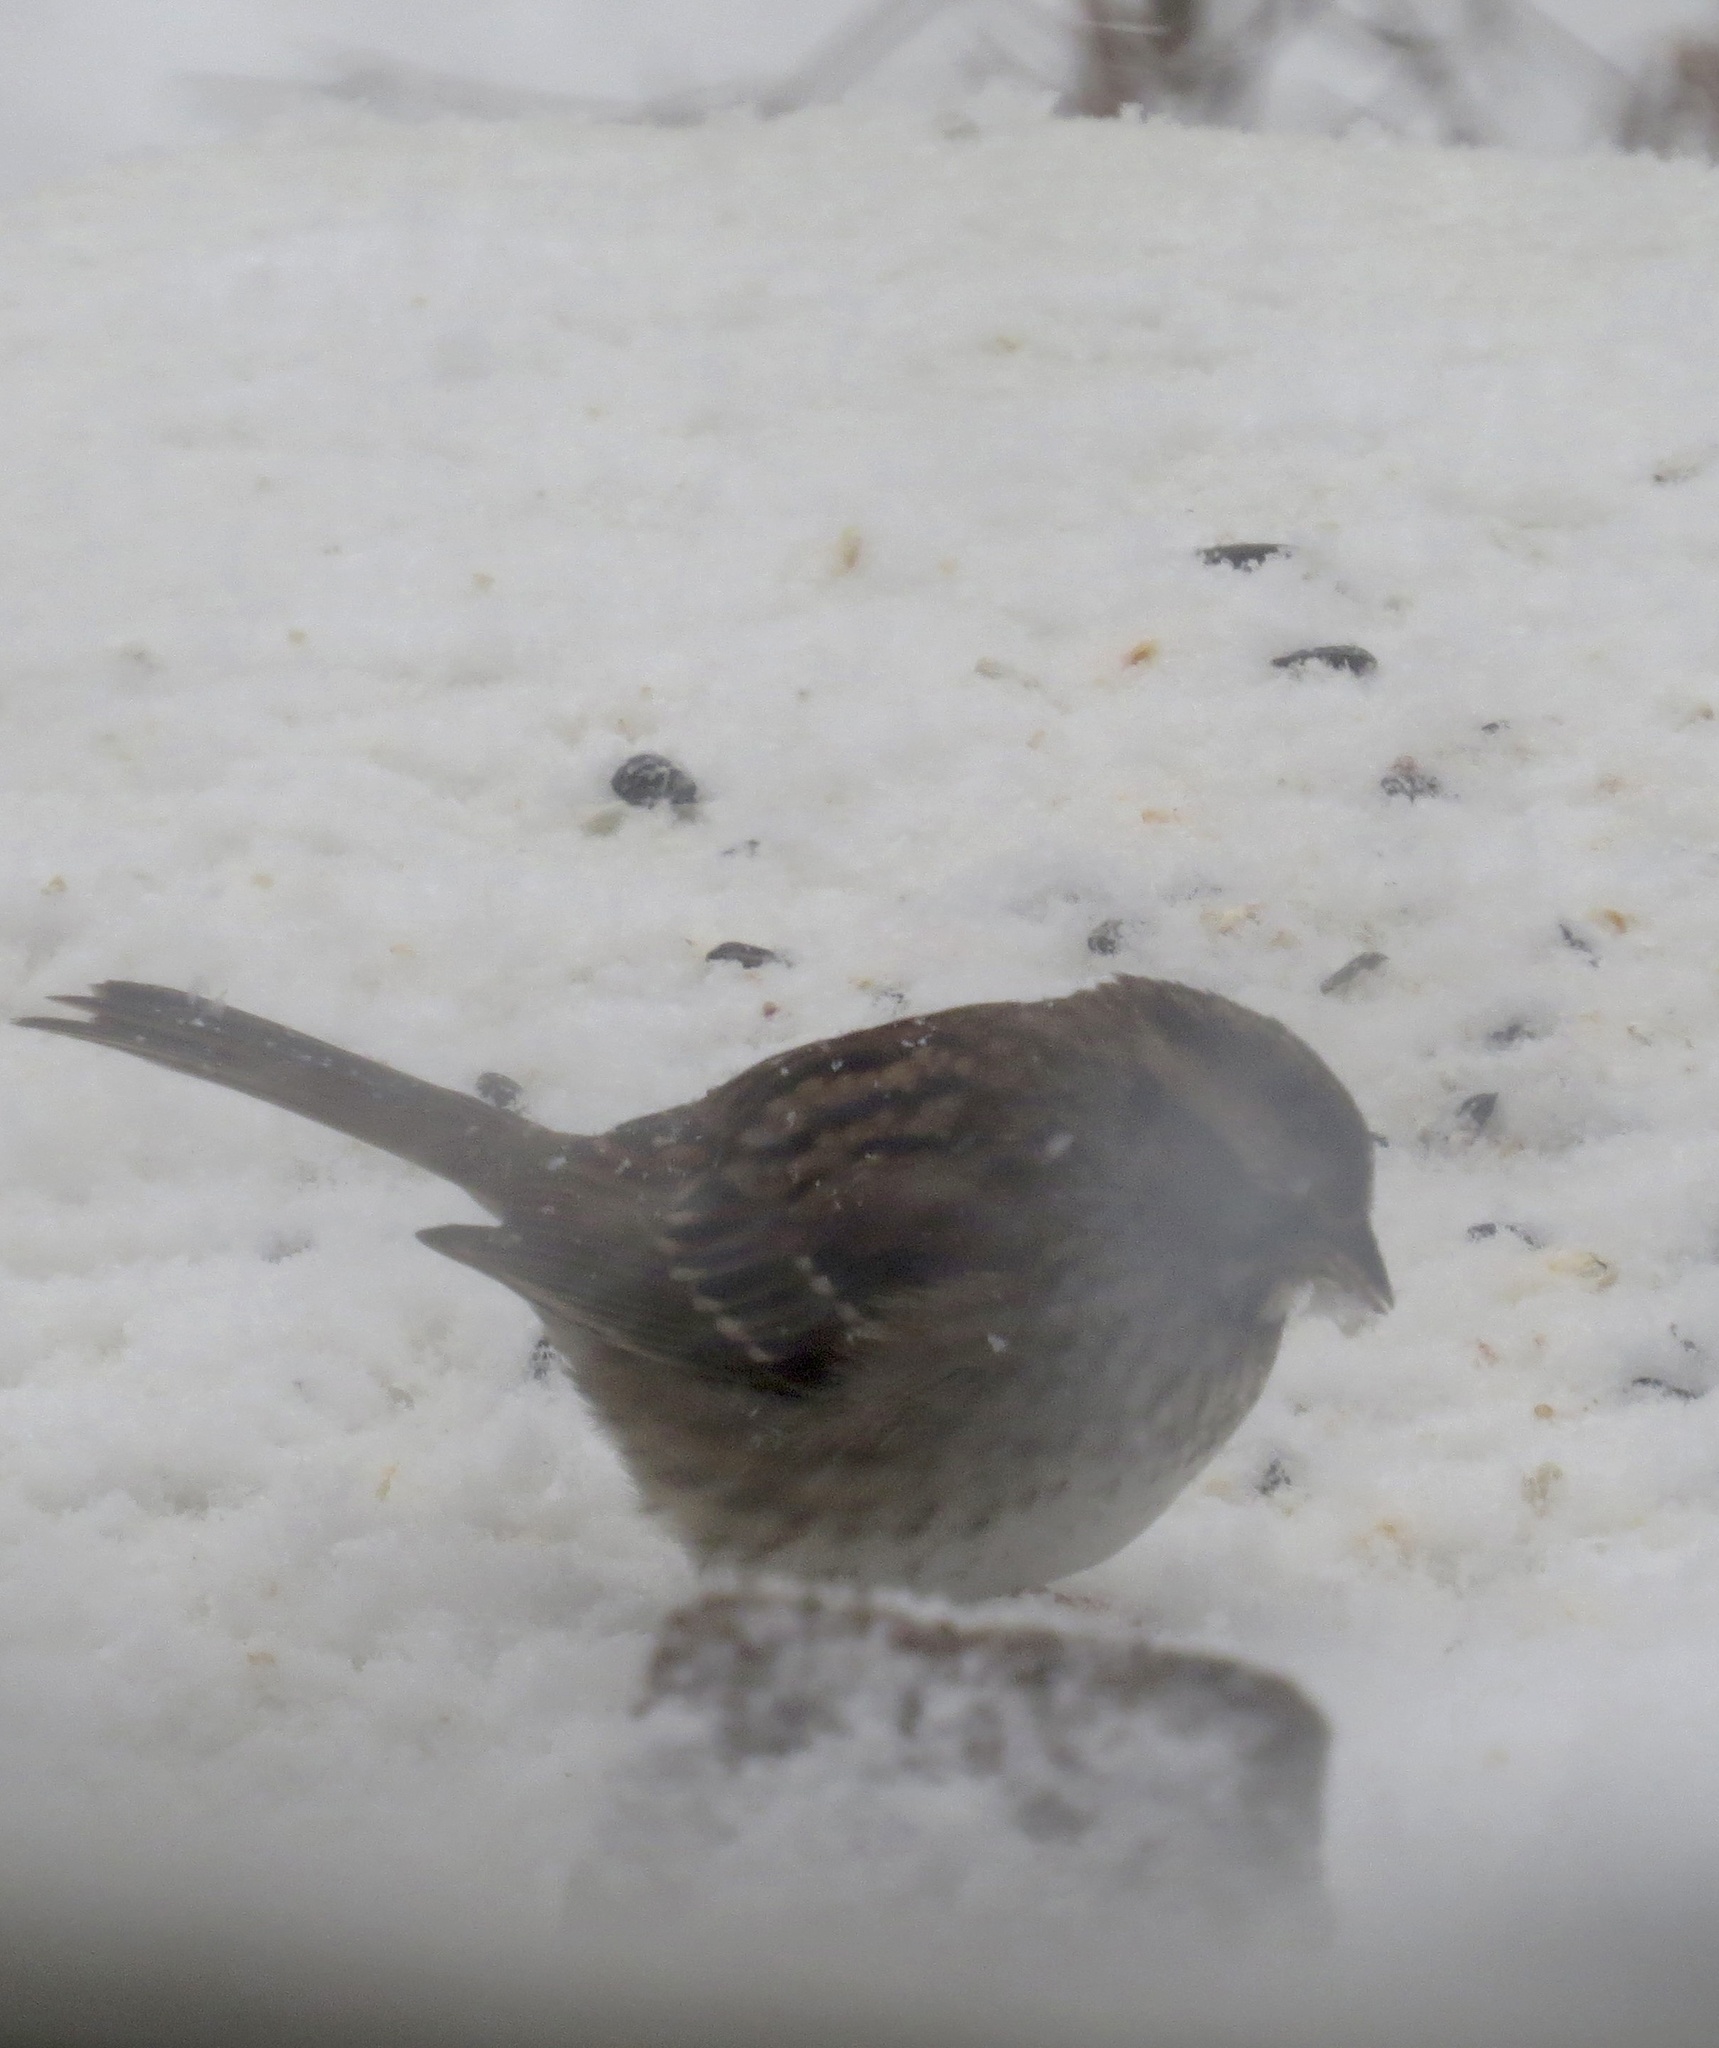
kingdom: Animalia
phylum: Chordata
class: Aves
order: Passeriformes
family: Passerellidae
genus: Zonotrichia
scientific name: Zonotrichia albicollis
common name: White-throated sparrow
